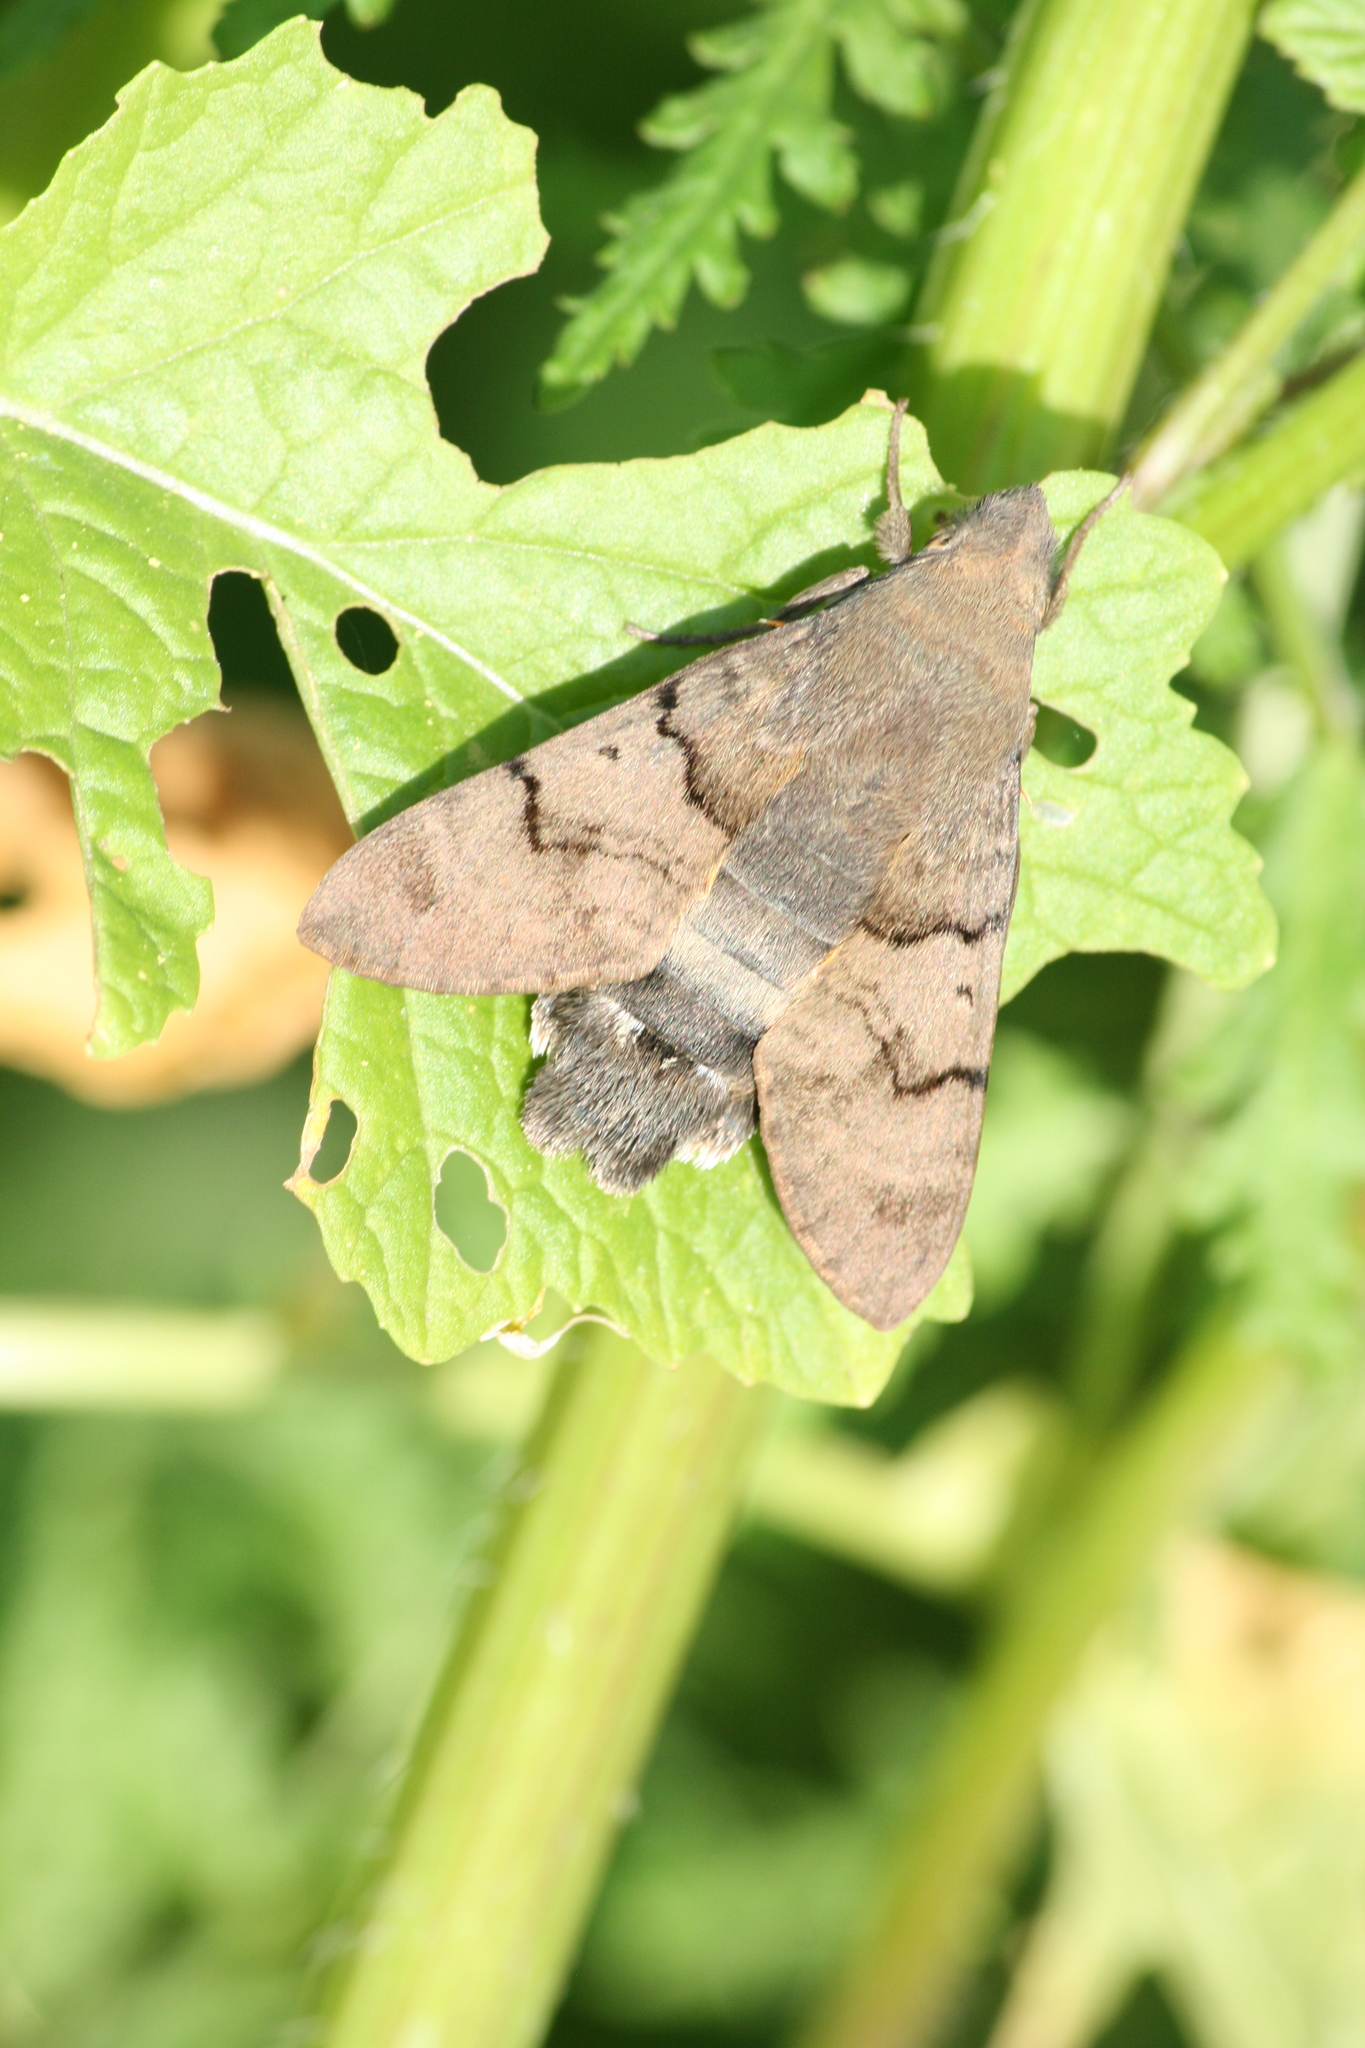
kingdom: Animalia
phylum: Arthropoda
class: Insecta
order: Lepidoptera
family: Sphingidae
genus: Macroglossum
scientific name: Macroglossum stellatarum
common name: Humming-bird hawk-moth
